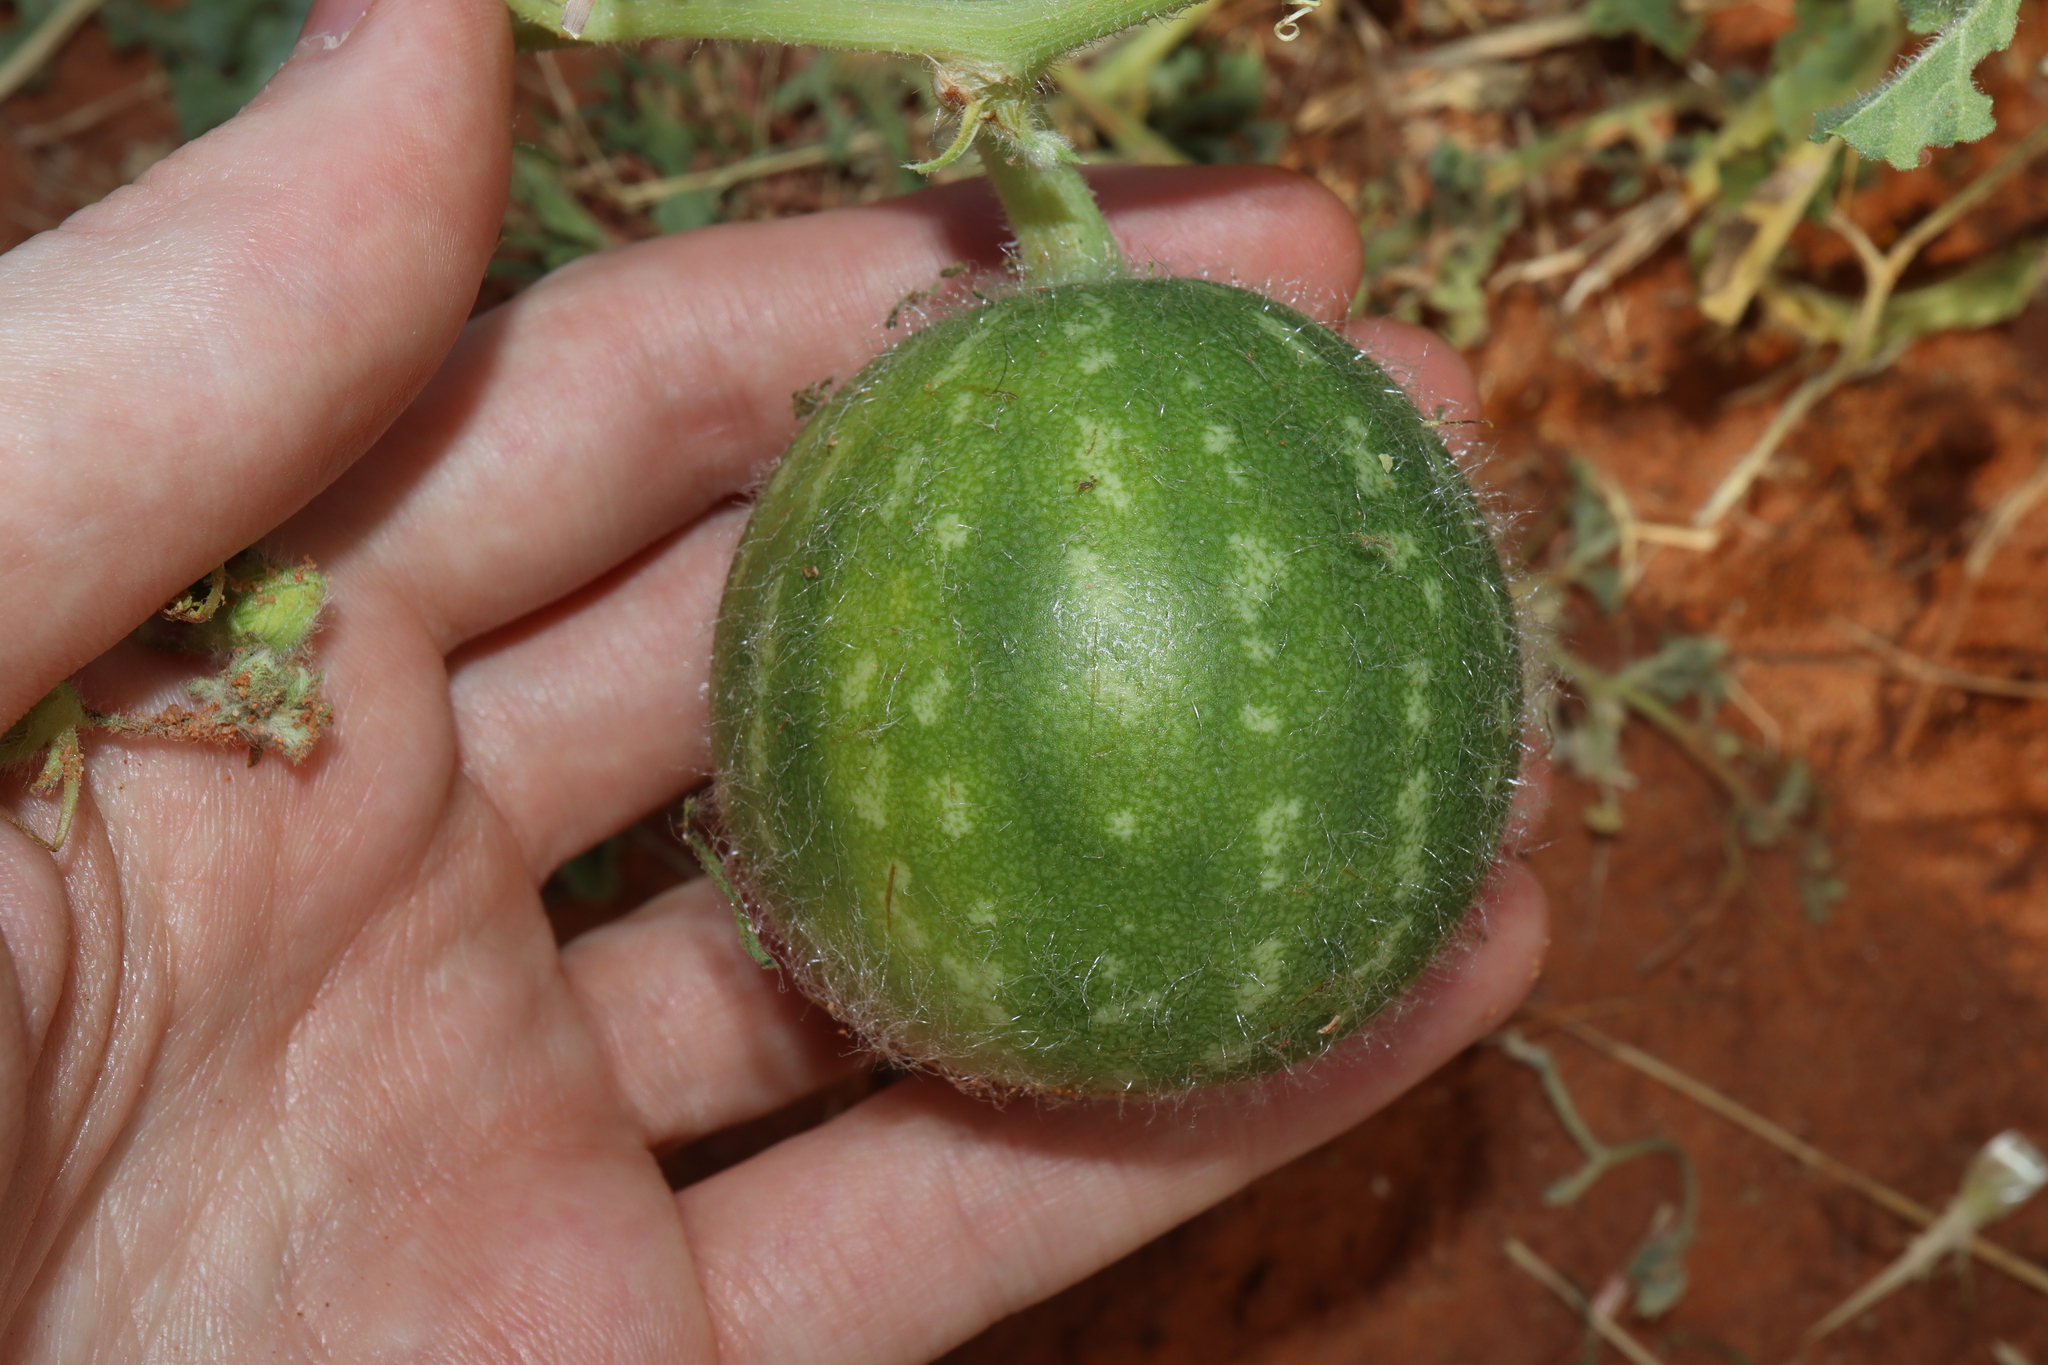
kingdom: Plantae
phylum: Tracheophyta
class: Magnoliopsida
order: Cucurbitales
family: Cucurbitaceae
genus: Citrullus
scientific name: Citrullus amarus
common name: Fodder-melon
